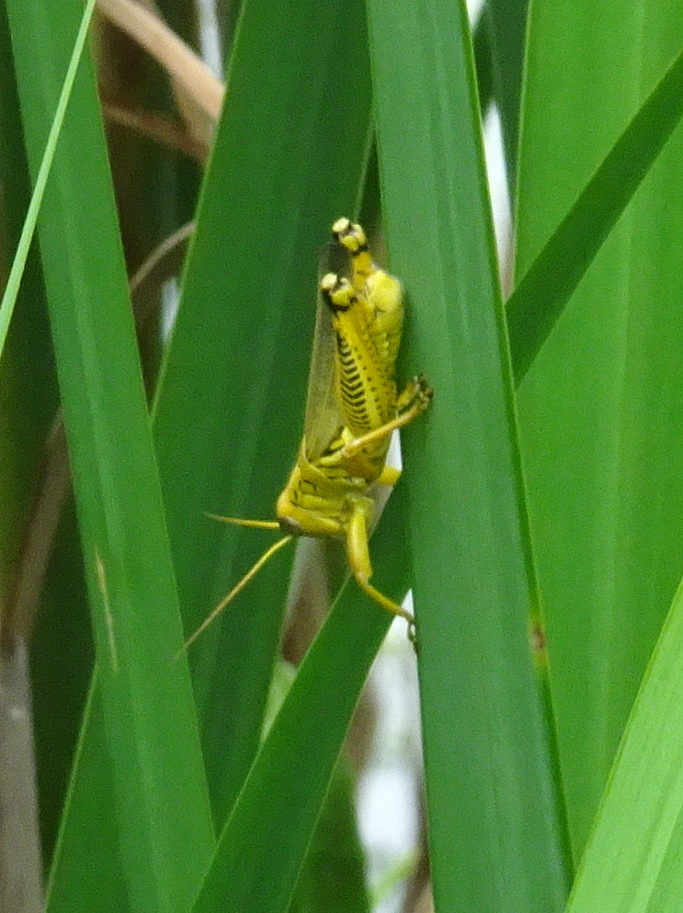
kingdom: Animalia
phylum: Arthropoda
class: Insecta
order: Orthoptera
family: Acrididae
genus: Melanoplus
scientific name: Melanoplus differentialis
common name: Differential grasshopper
